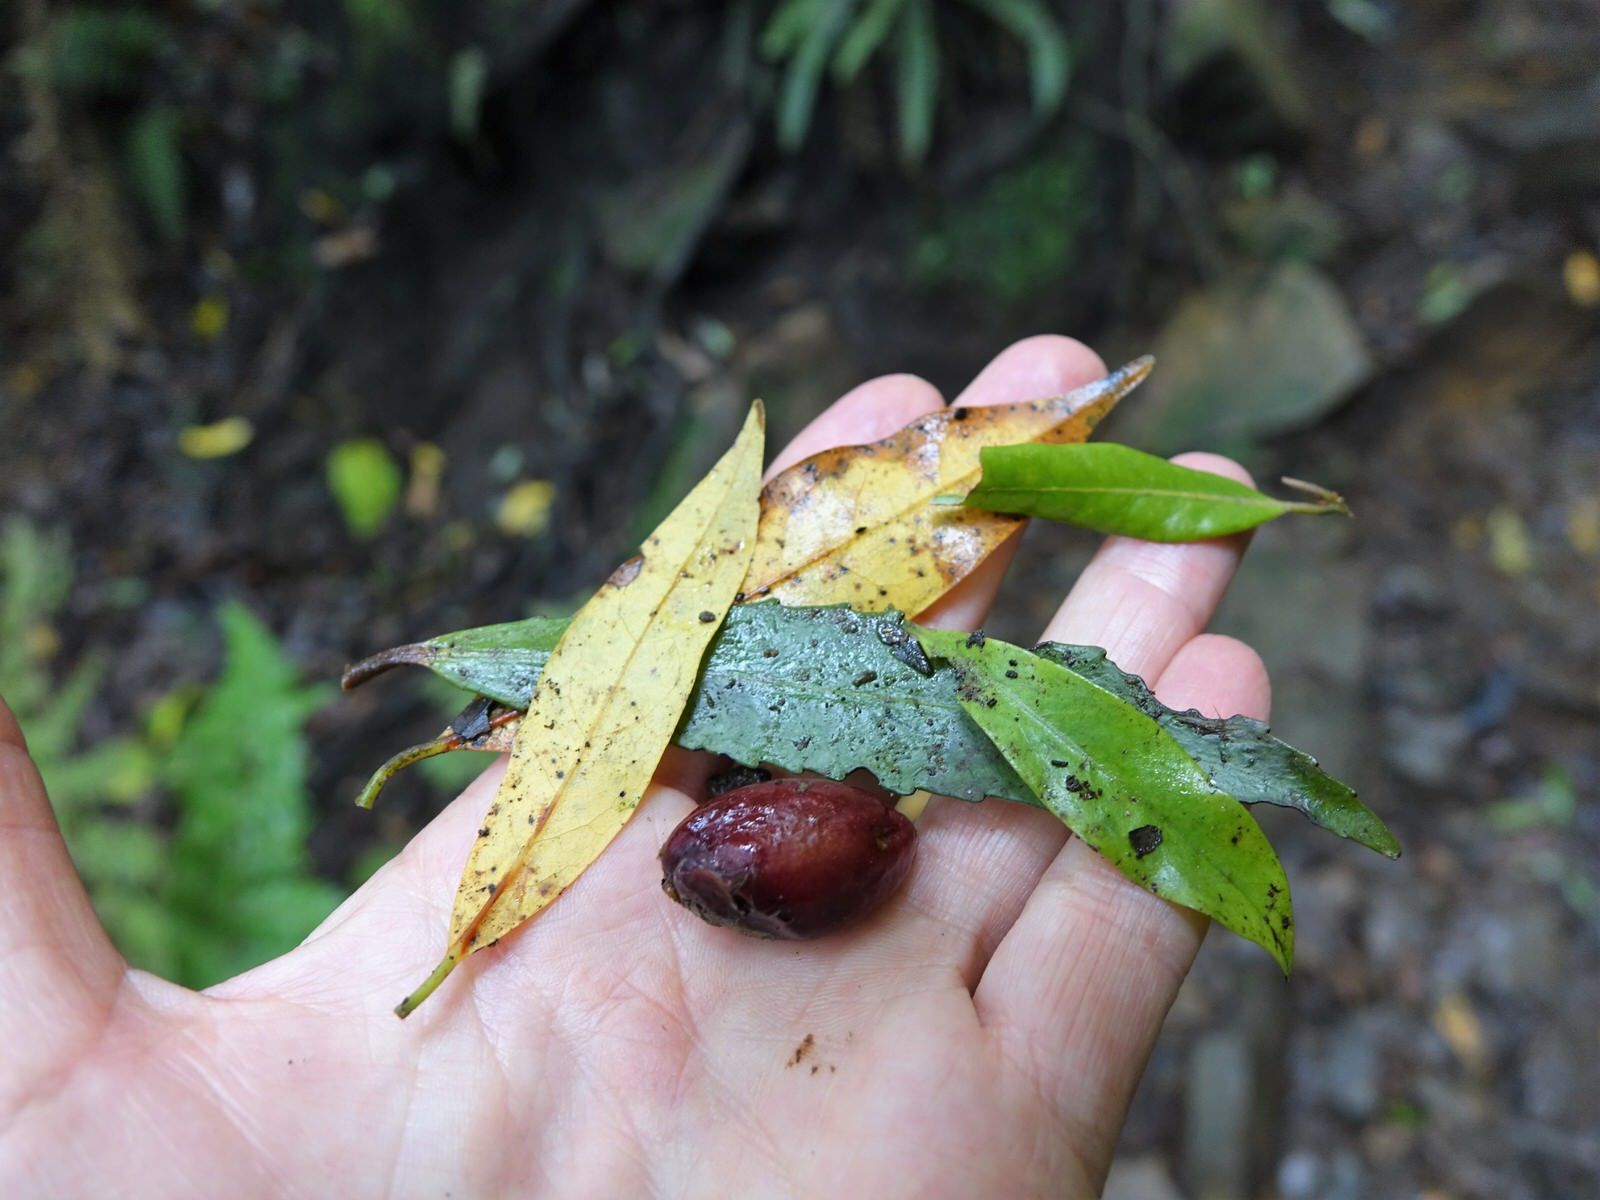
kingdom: Plantae
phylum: Tracheophyta
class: Magnoliopsida
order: Laurales
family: Lauraceae
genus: Beilschmiedia
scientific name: Beilschmiedia tawa
